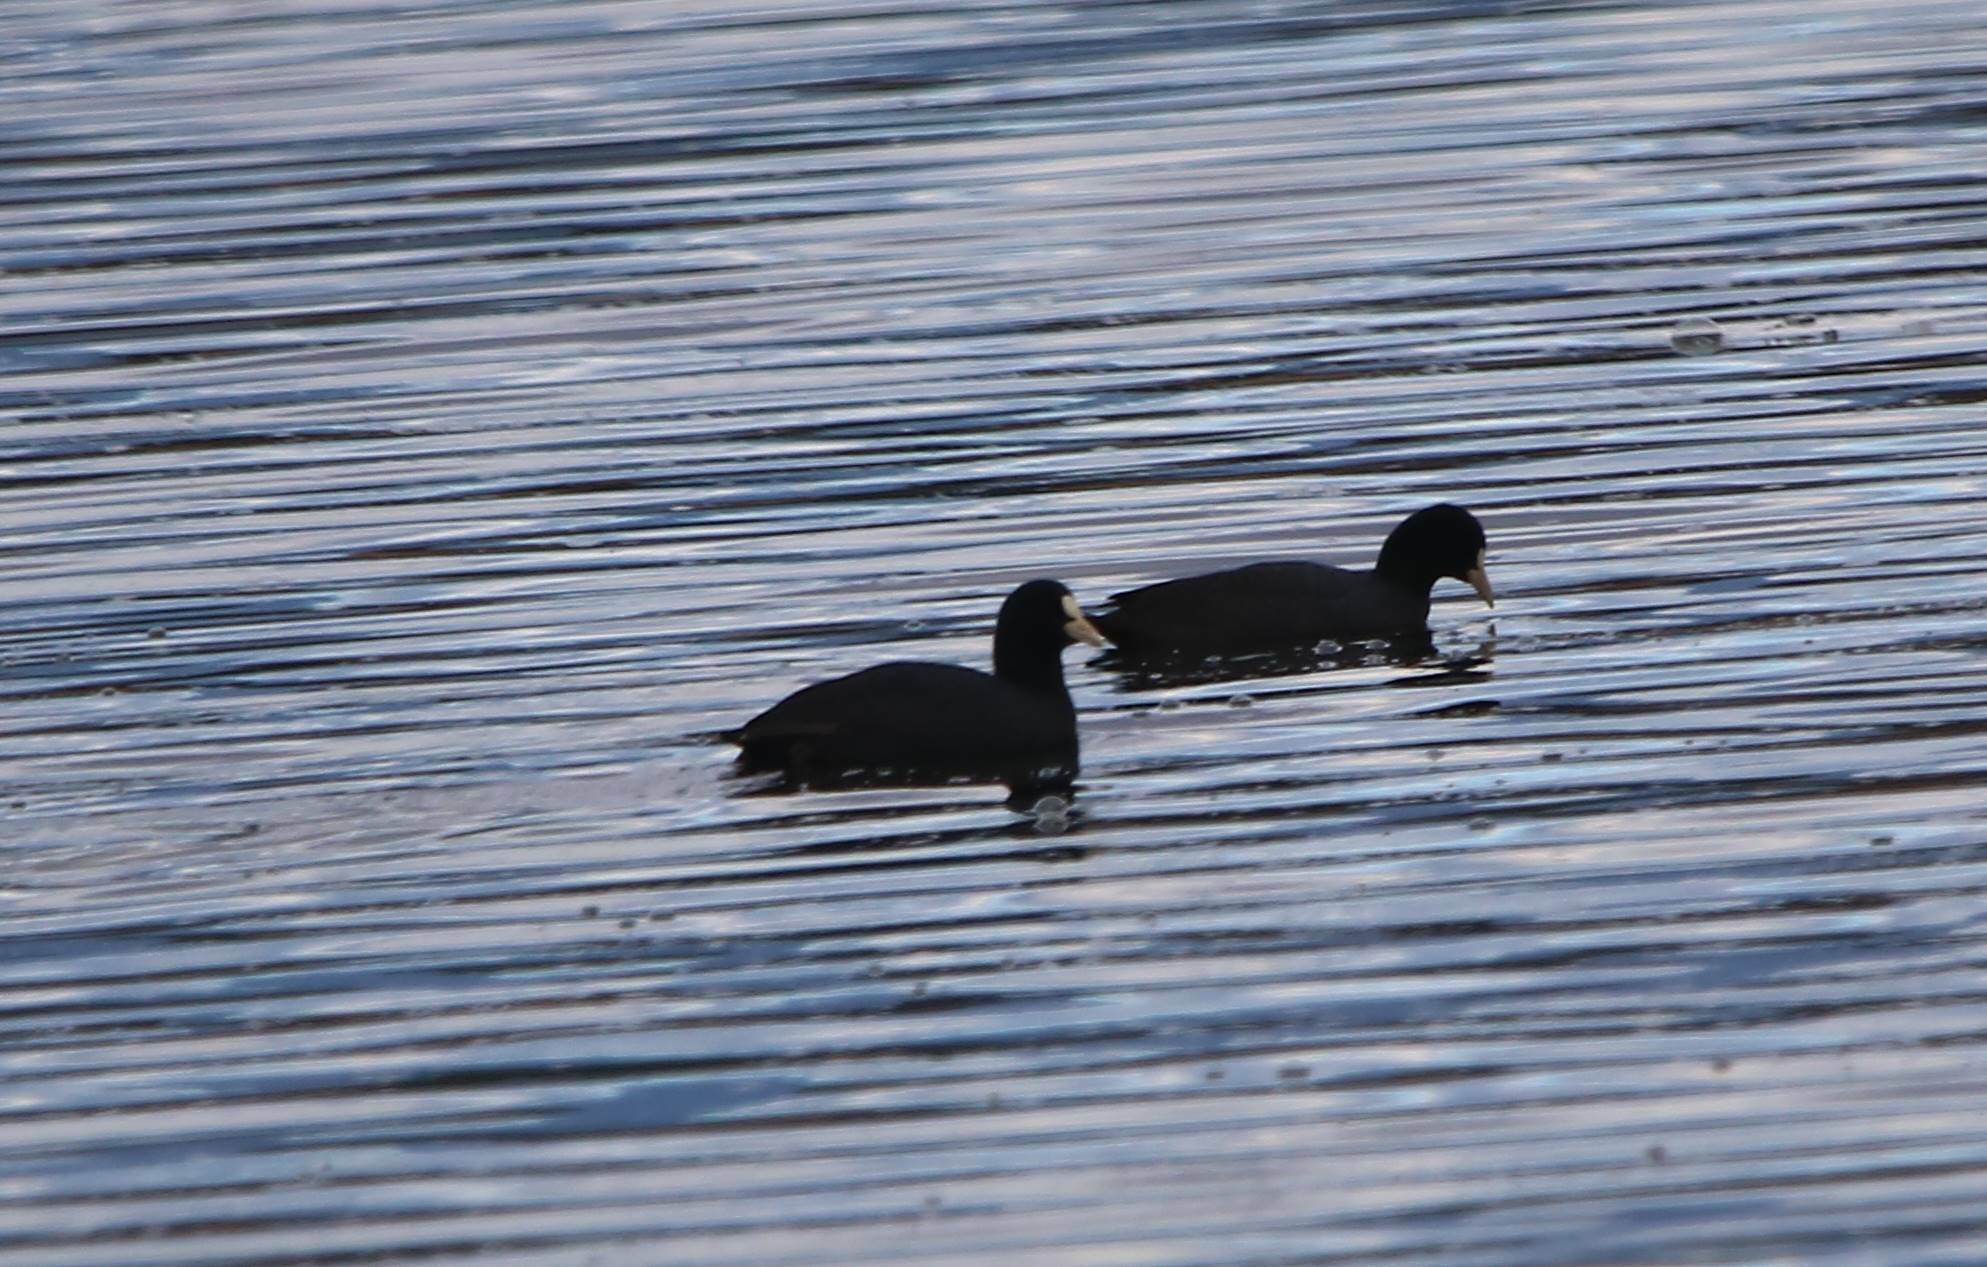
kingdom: Animalia
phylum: Chordata
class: Aves
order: Gruiformes
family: Rallidae
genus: Fulica
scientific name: Fulica atra
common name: Eurasian coot
